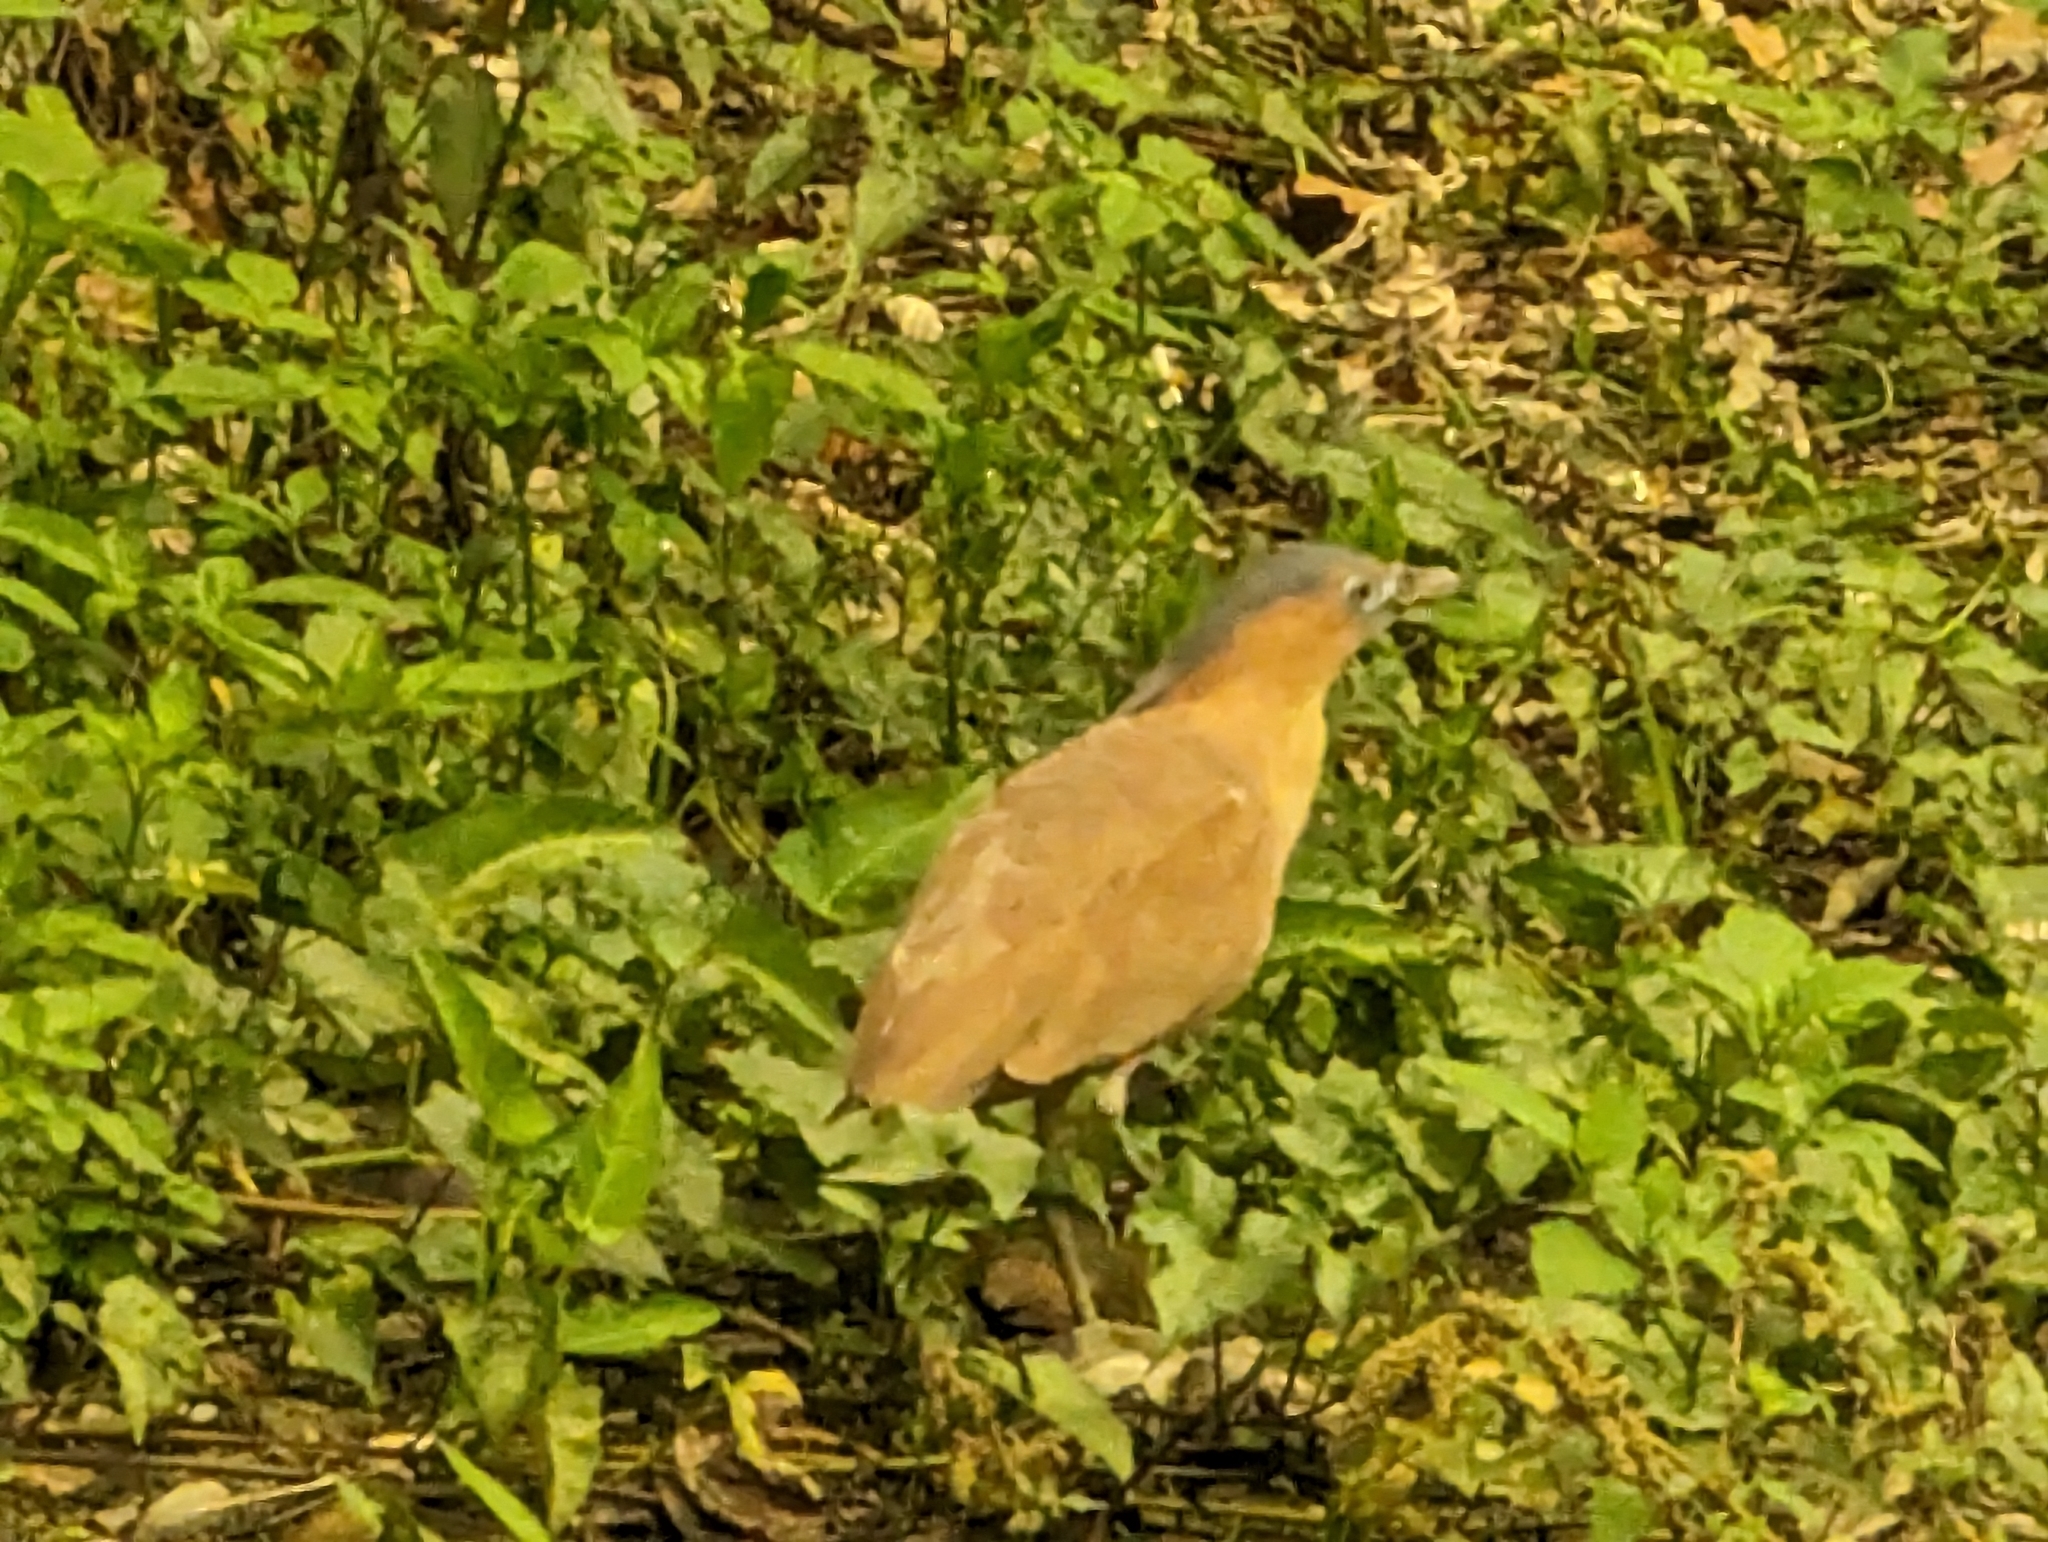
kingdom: Animalia
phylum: Chordata
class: Aves
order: Pelecaniformes
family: Ardeidae
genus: Gorsachius
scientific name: Gorsachius melanolophus
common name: Malayan night heron
